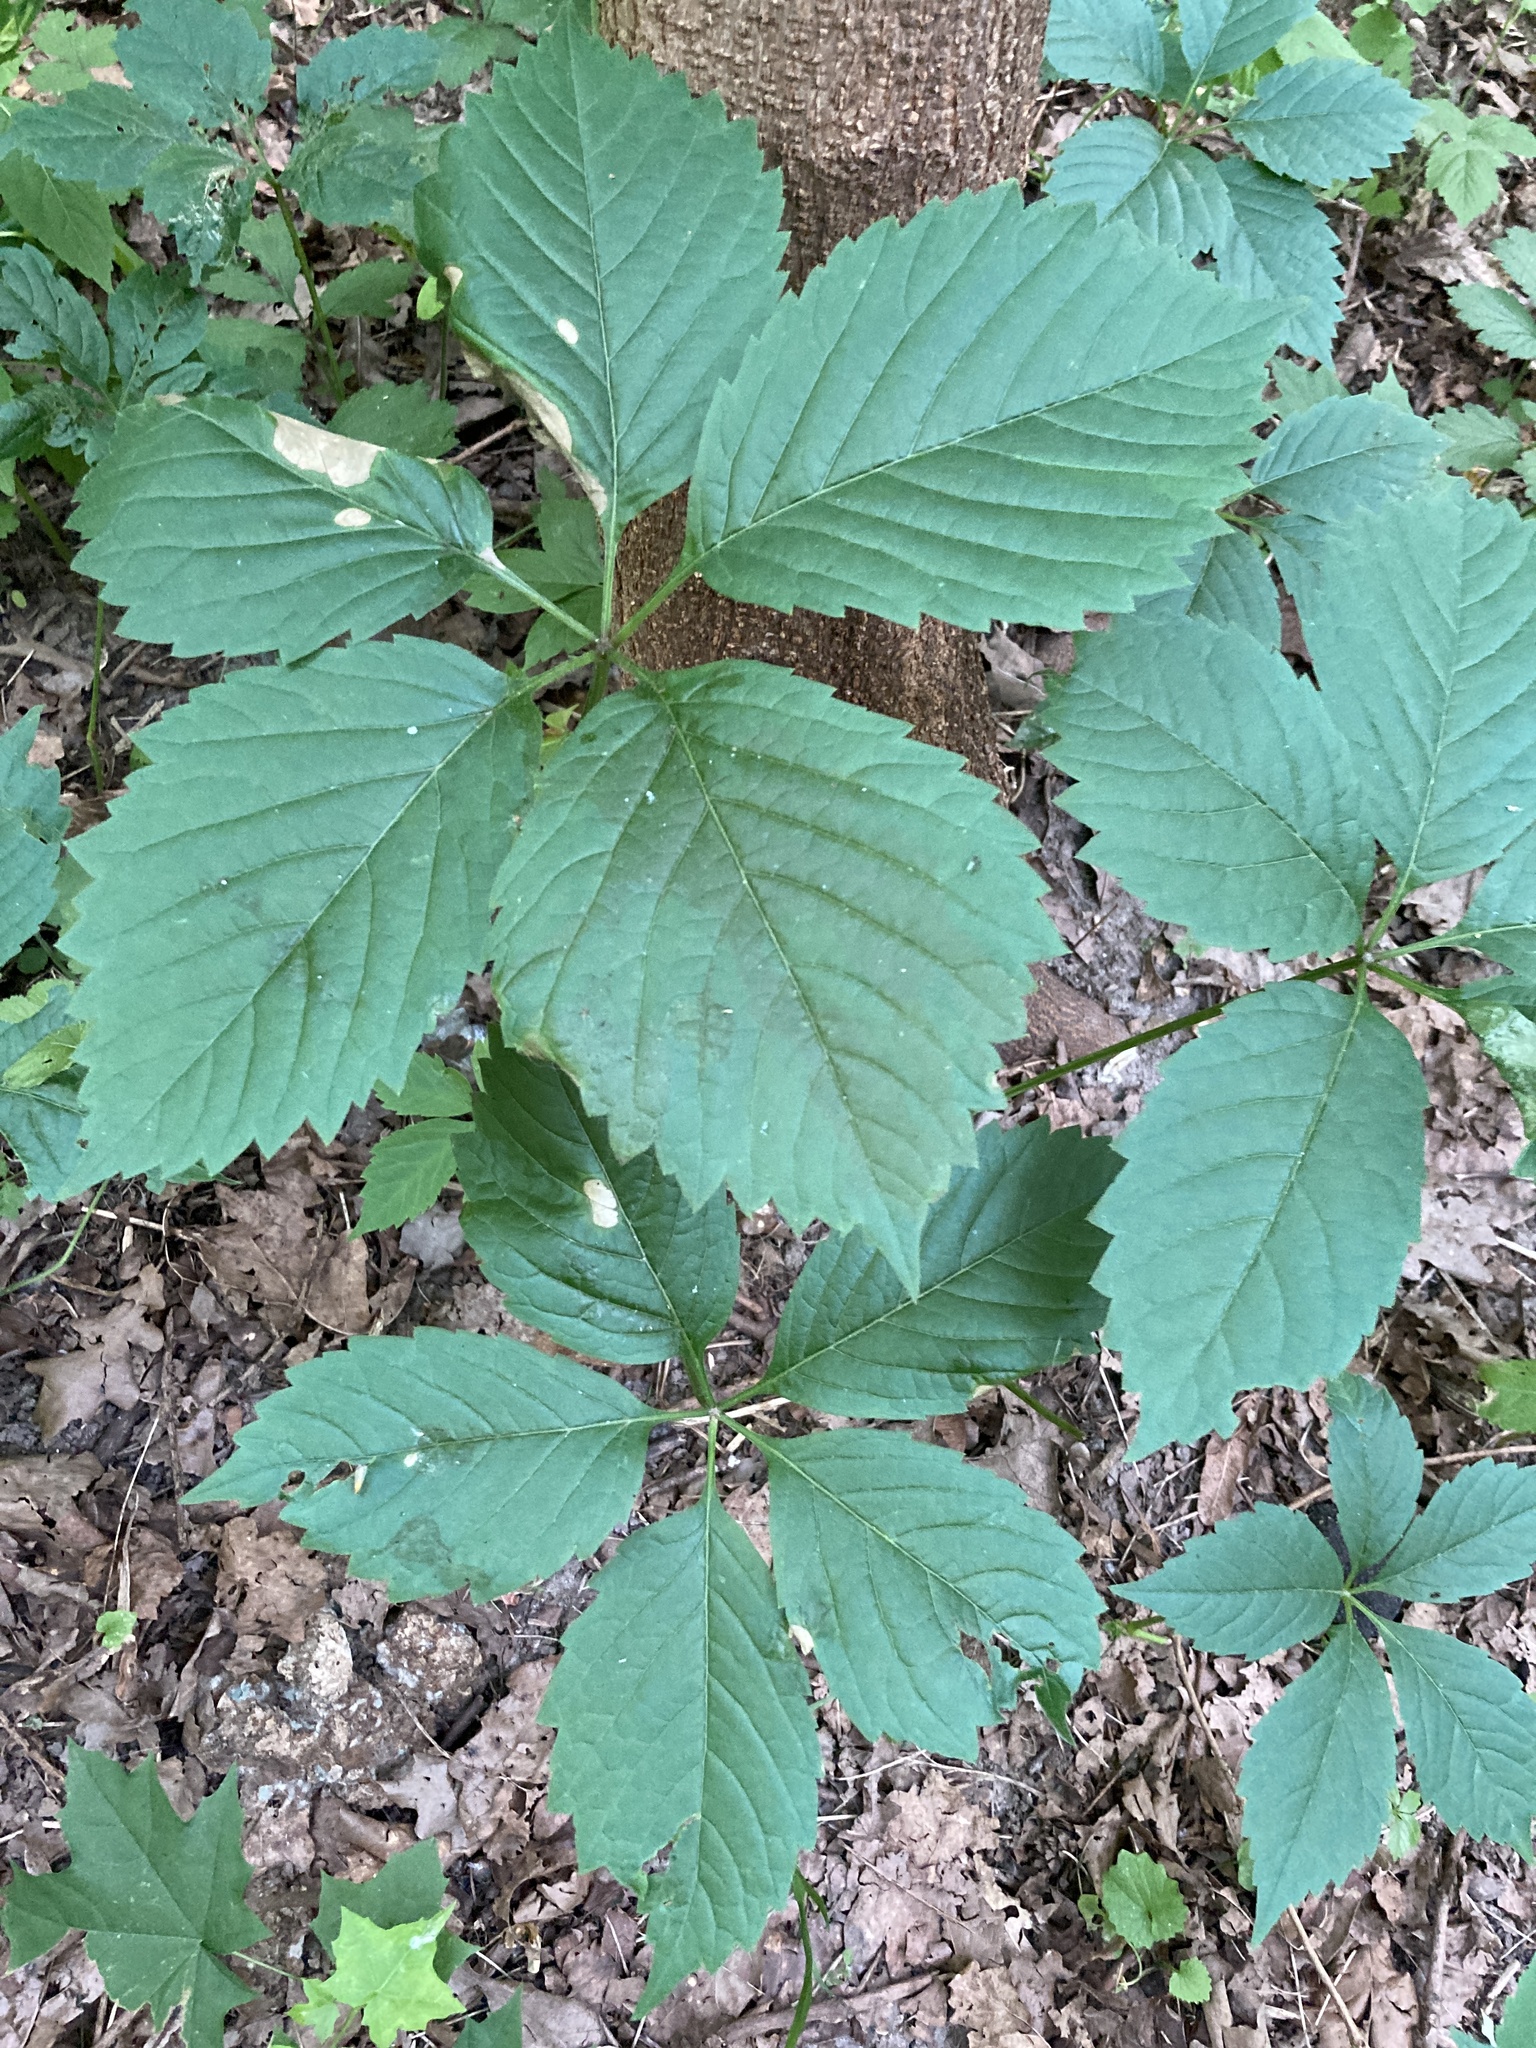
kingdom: Plantae
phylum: Tracheophyta
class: Magnoliopsida
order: Vitales
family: Vitaceae
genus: Parthenocissus
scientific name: Parthenocissus inserta
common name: False virginia-creeper
